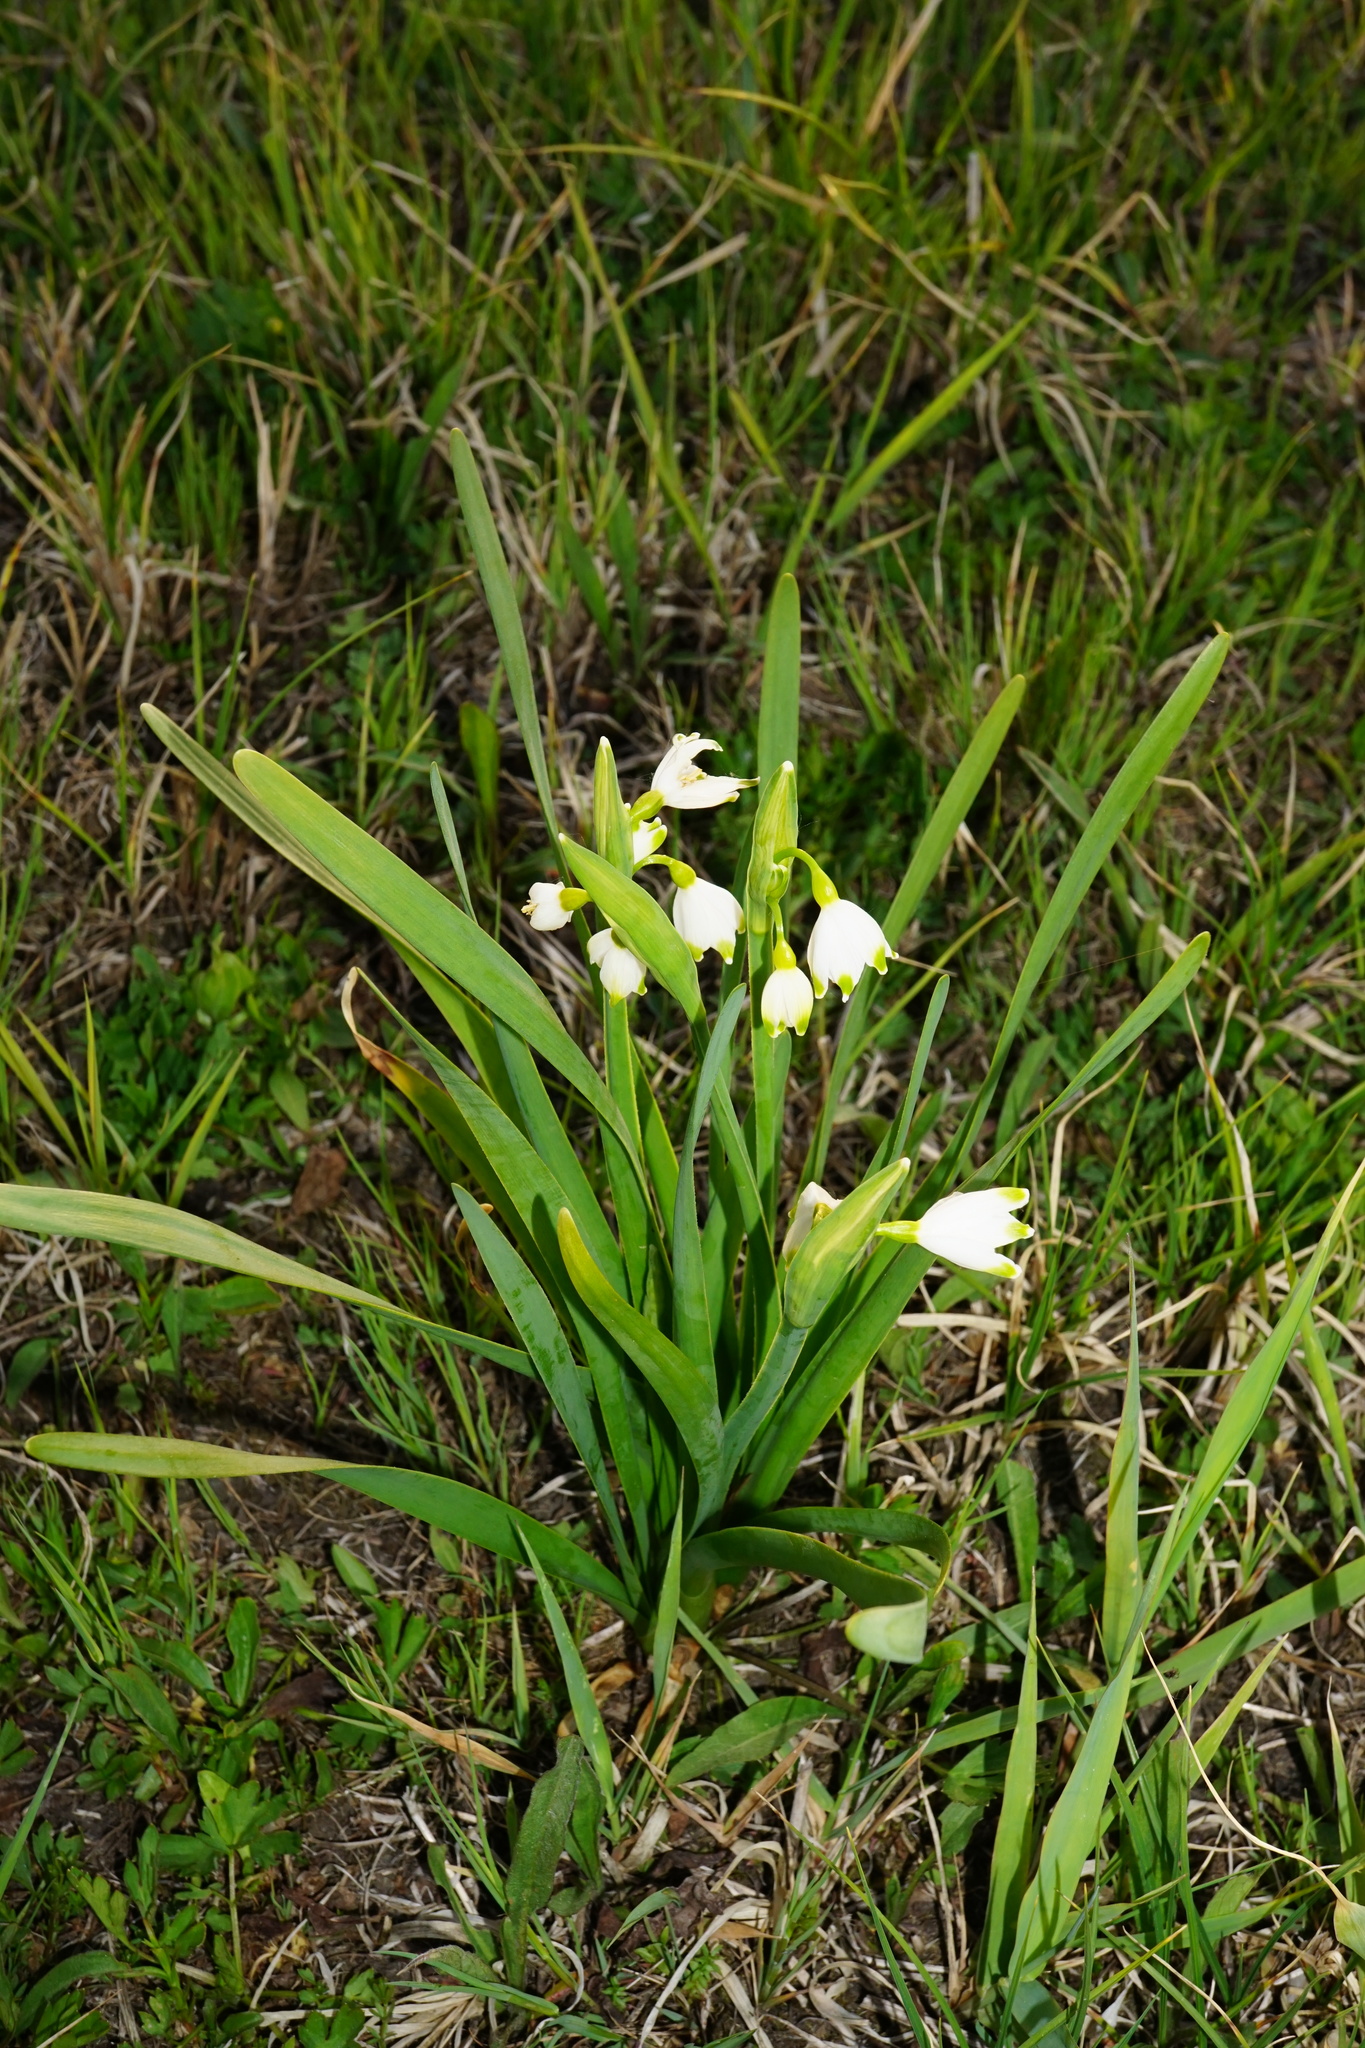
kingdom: Plantae
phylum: Tracheophyta
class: Liliopsida
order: Asparagales
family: Amaryllidaceae
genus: Leucojum
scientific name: Leucojum aestivum
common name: Summer snowflake
